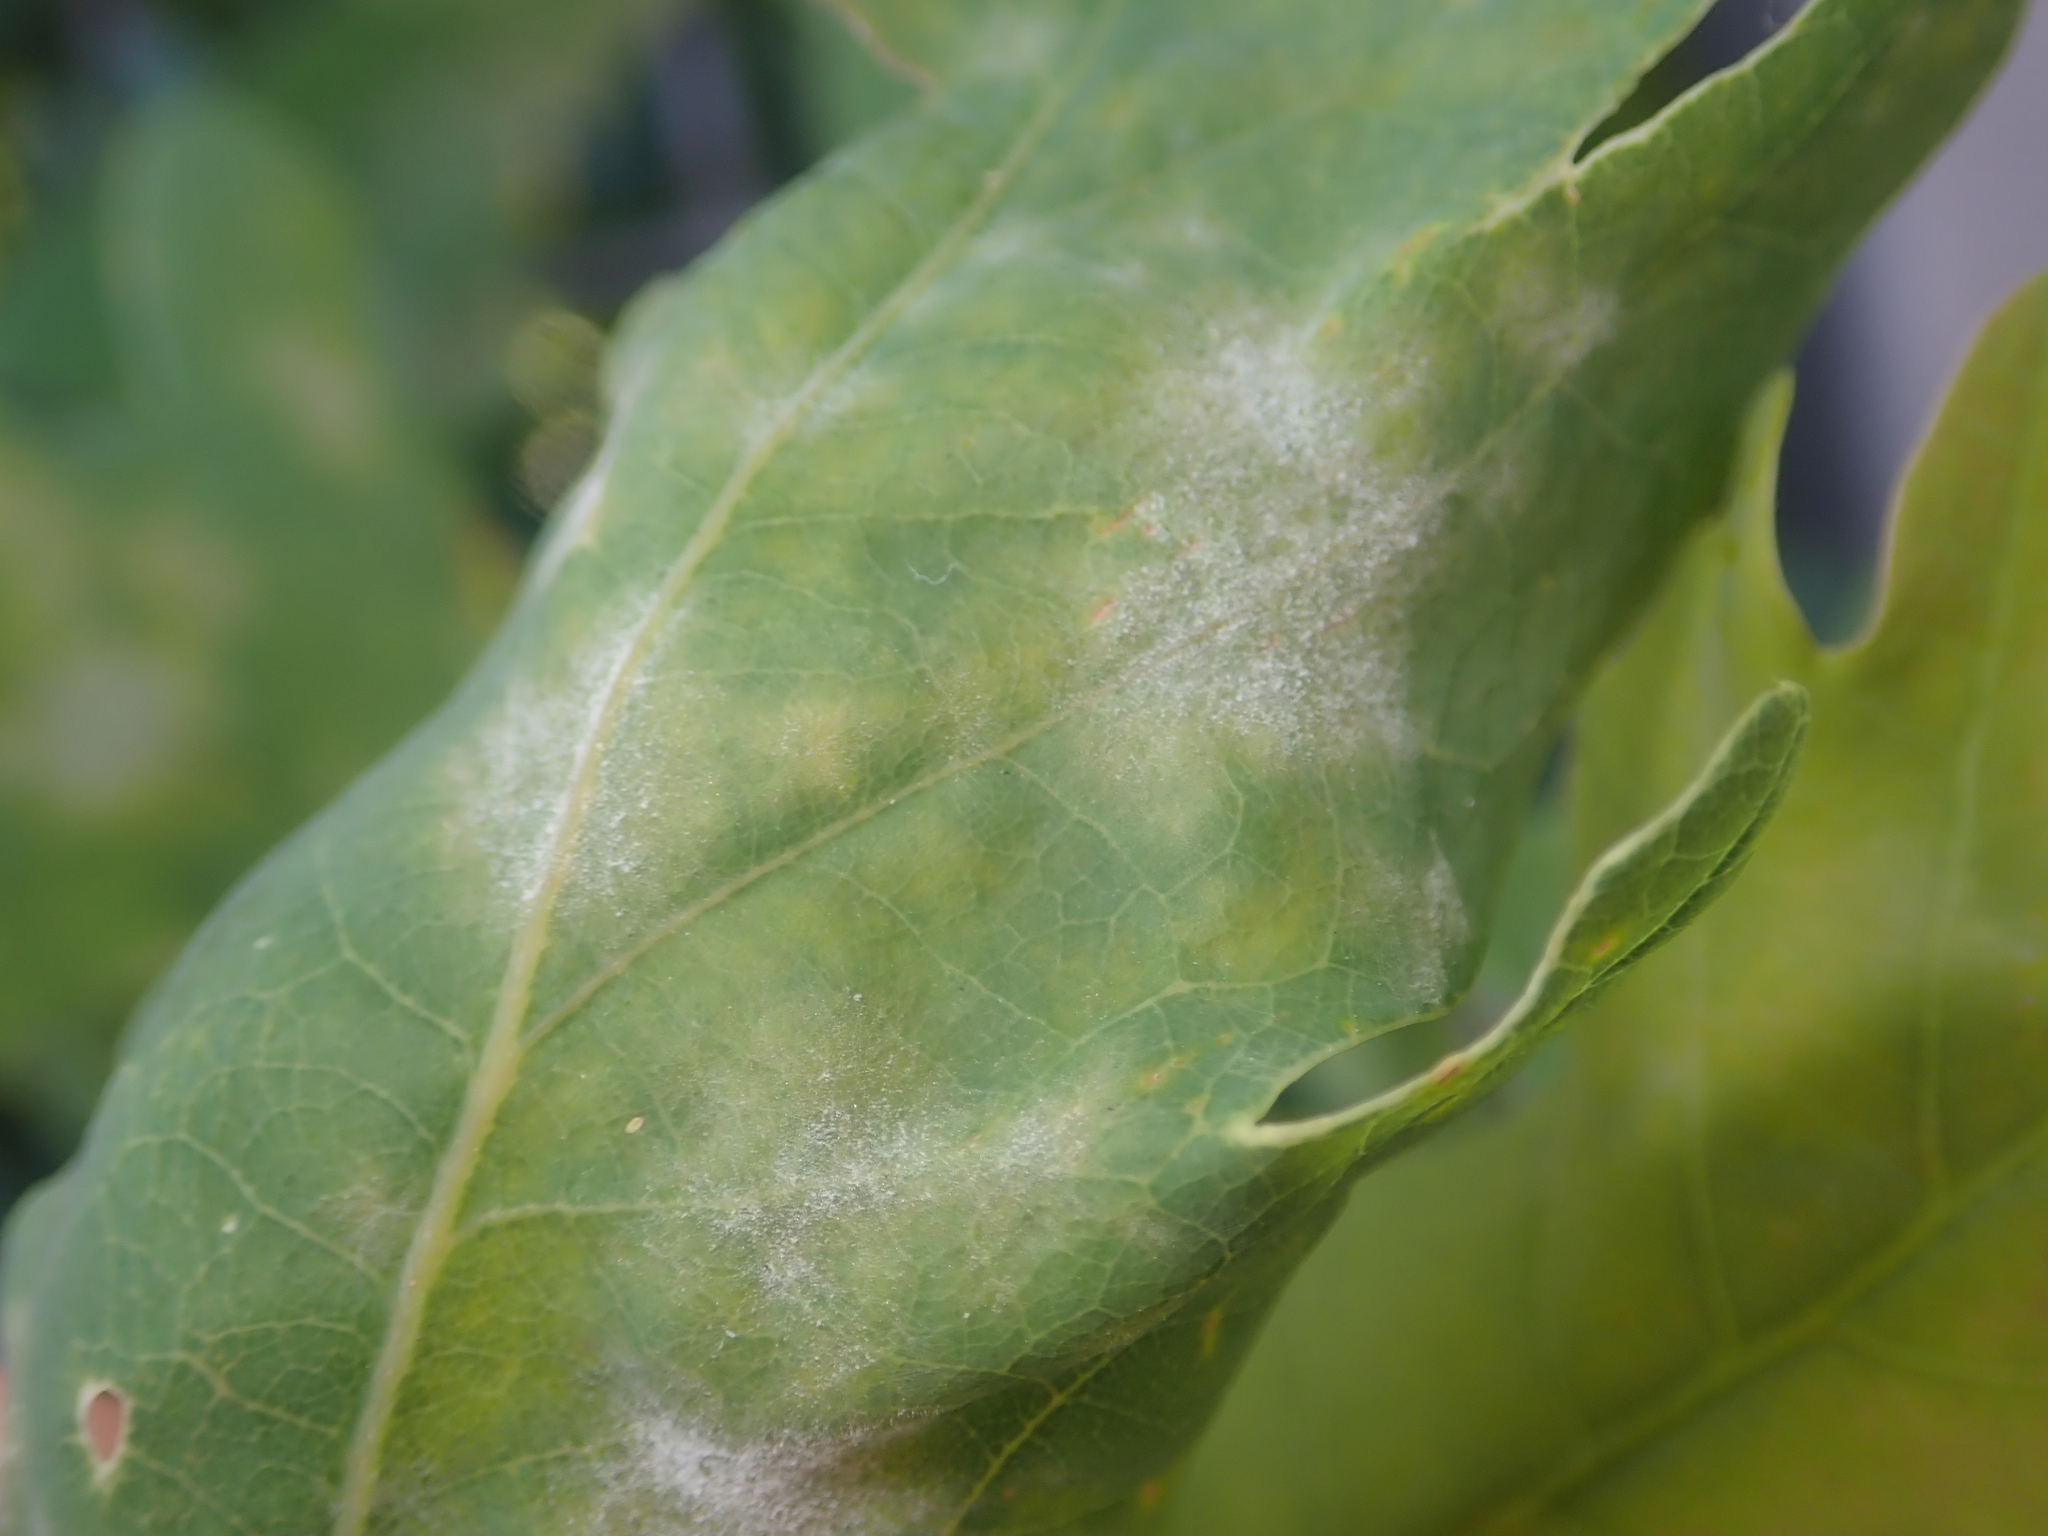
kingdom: Fungi
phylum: Ascomycota
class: Leotiomycetes
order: Helotiales
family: Erysiphaceae
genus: Erysiphe
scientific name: Erysiphe
